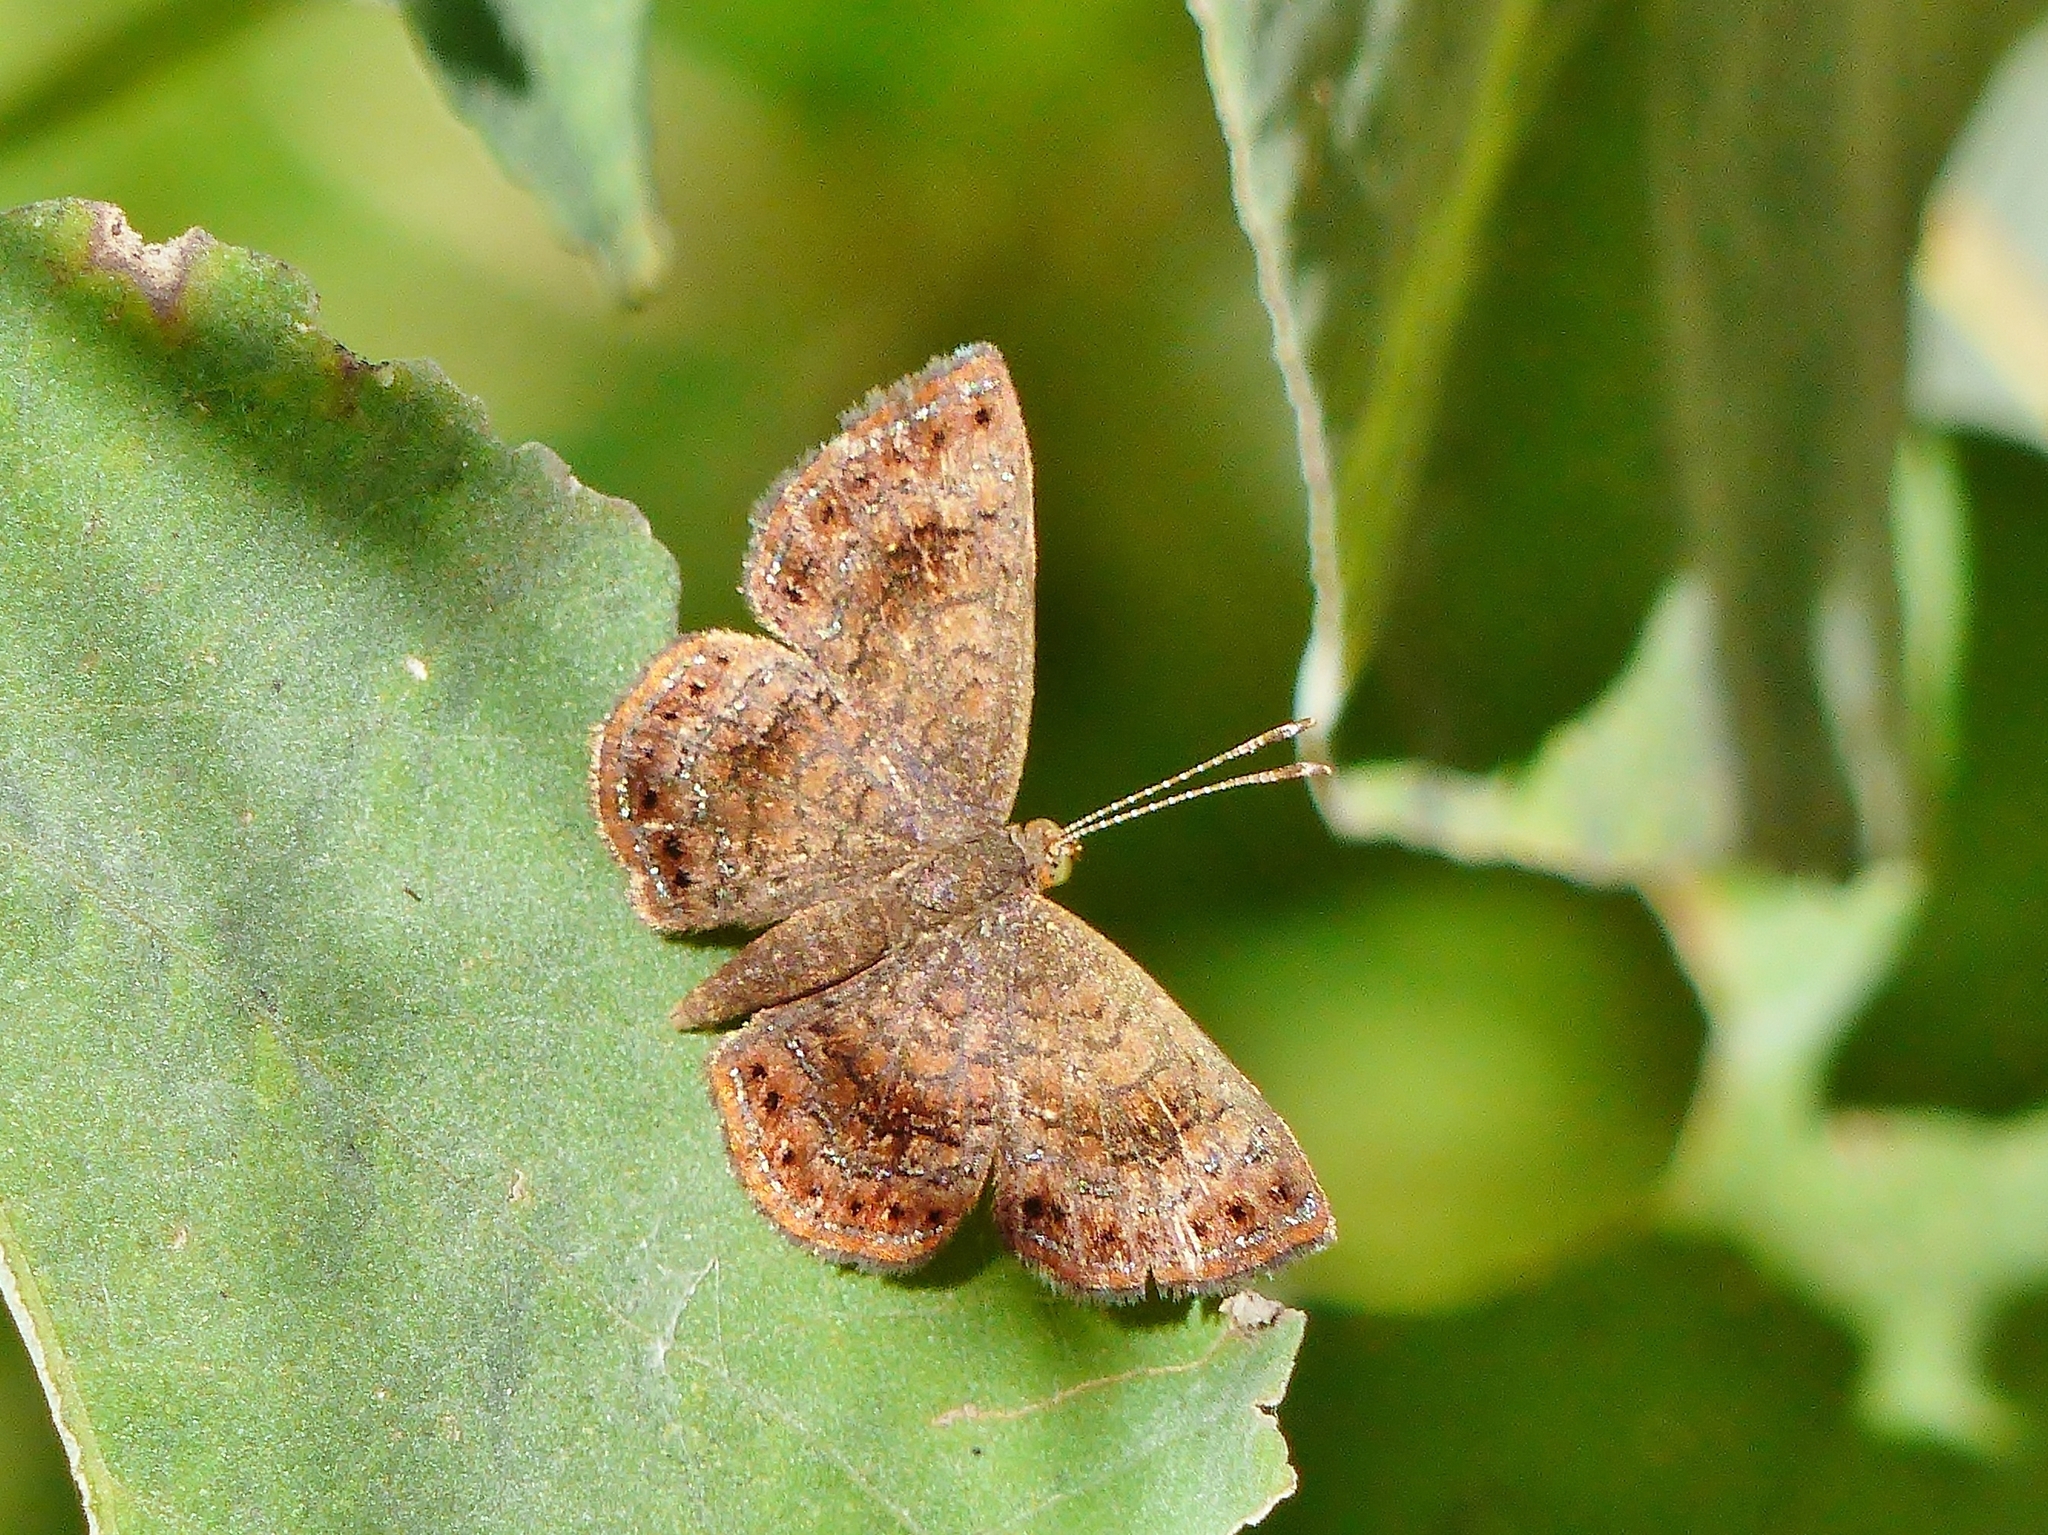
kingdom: Animalia
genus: Calephelis
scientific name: Calephelis perditalis
